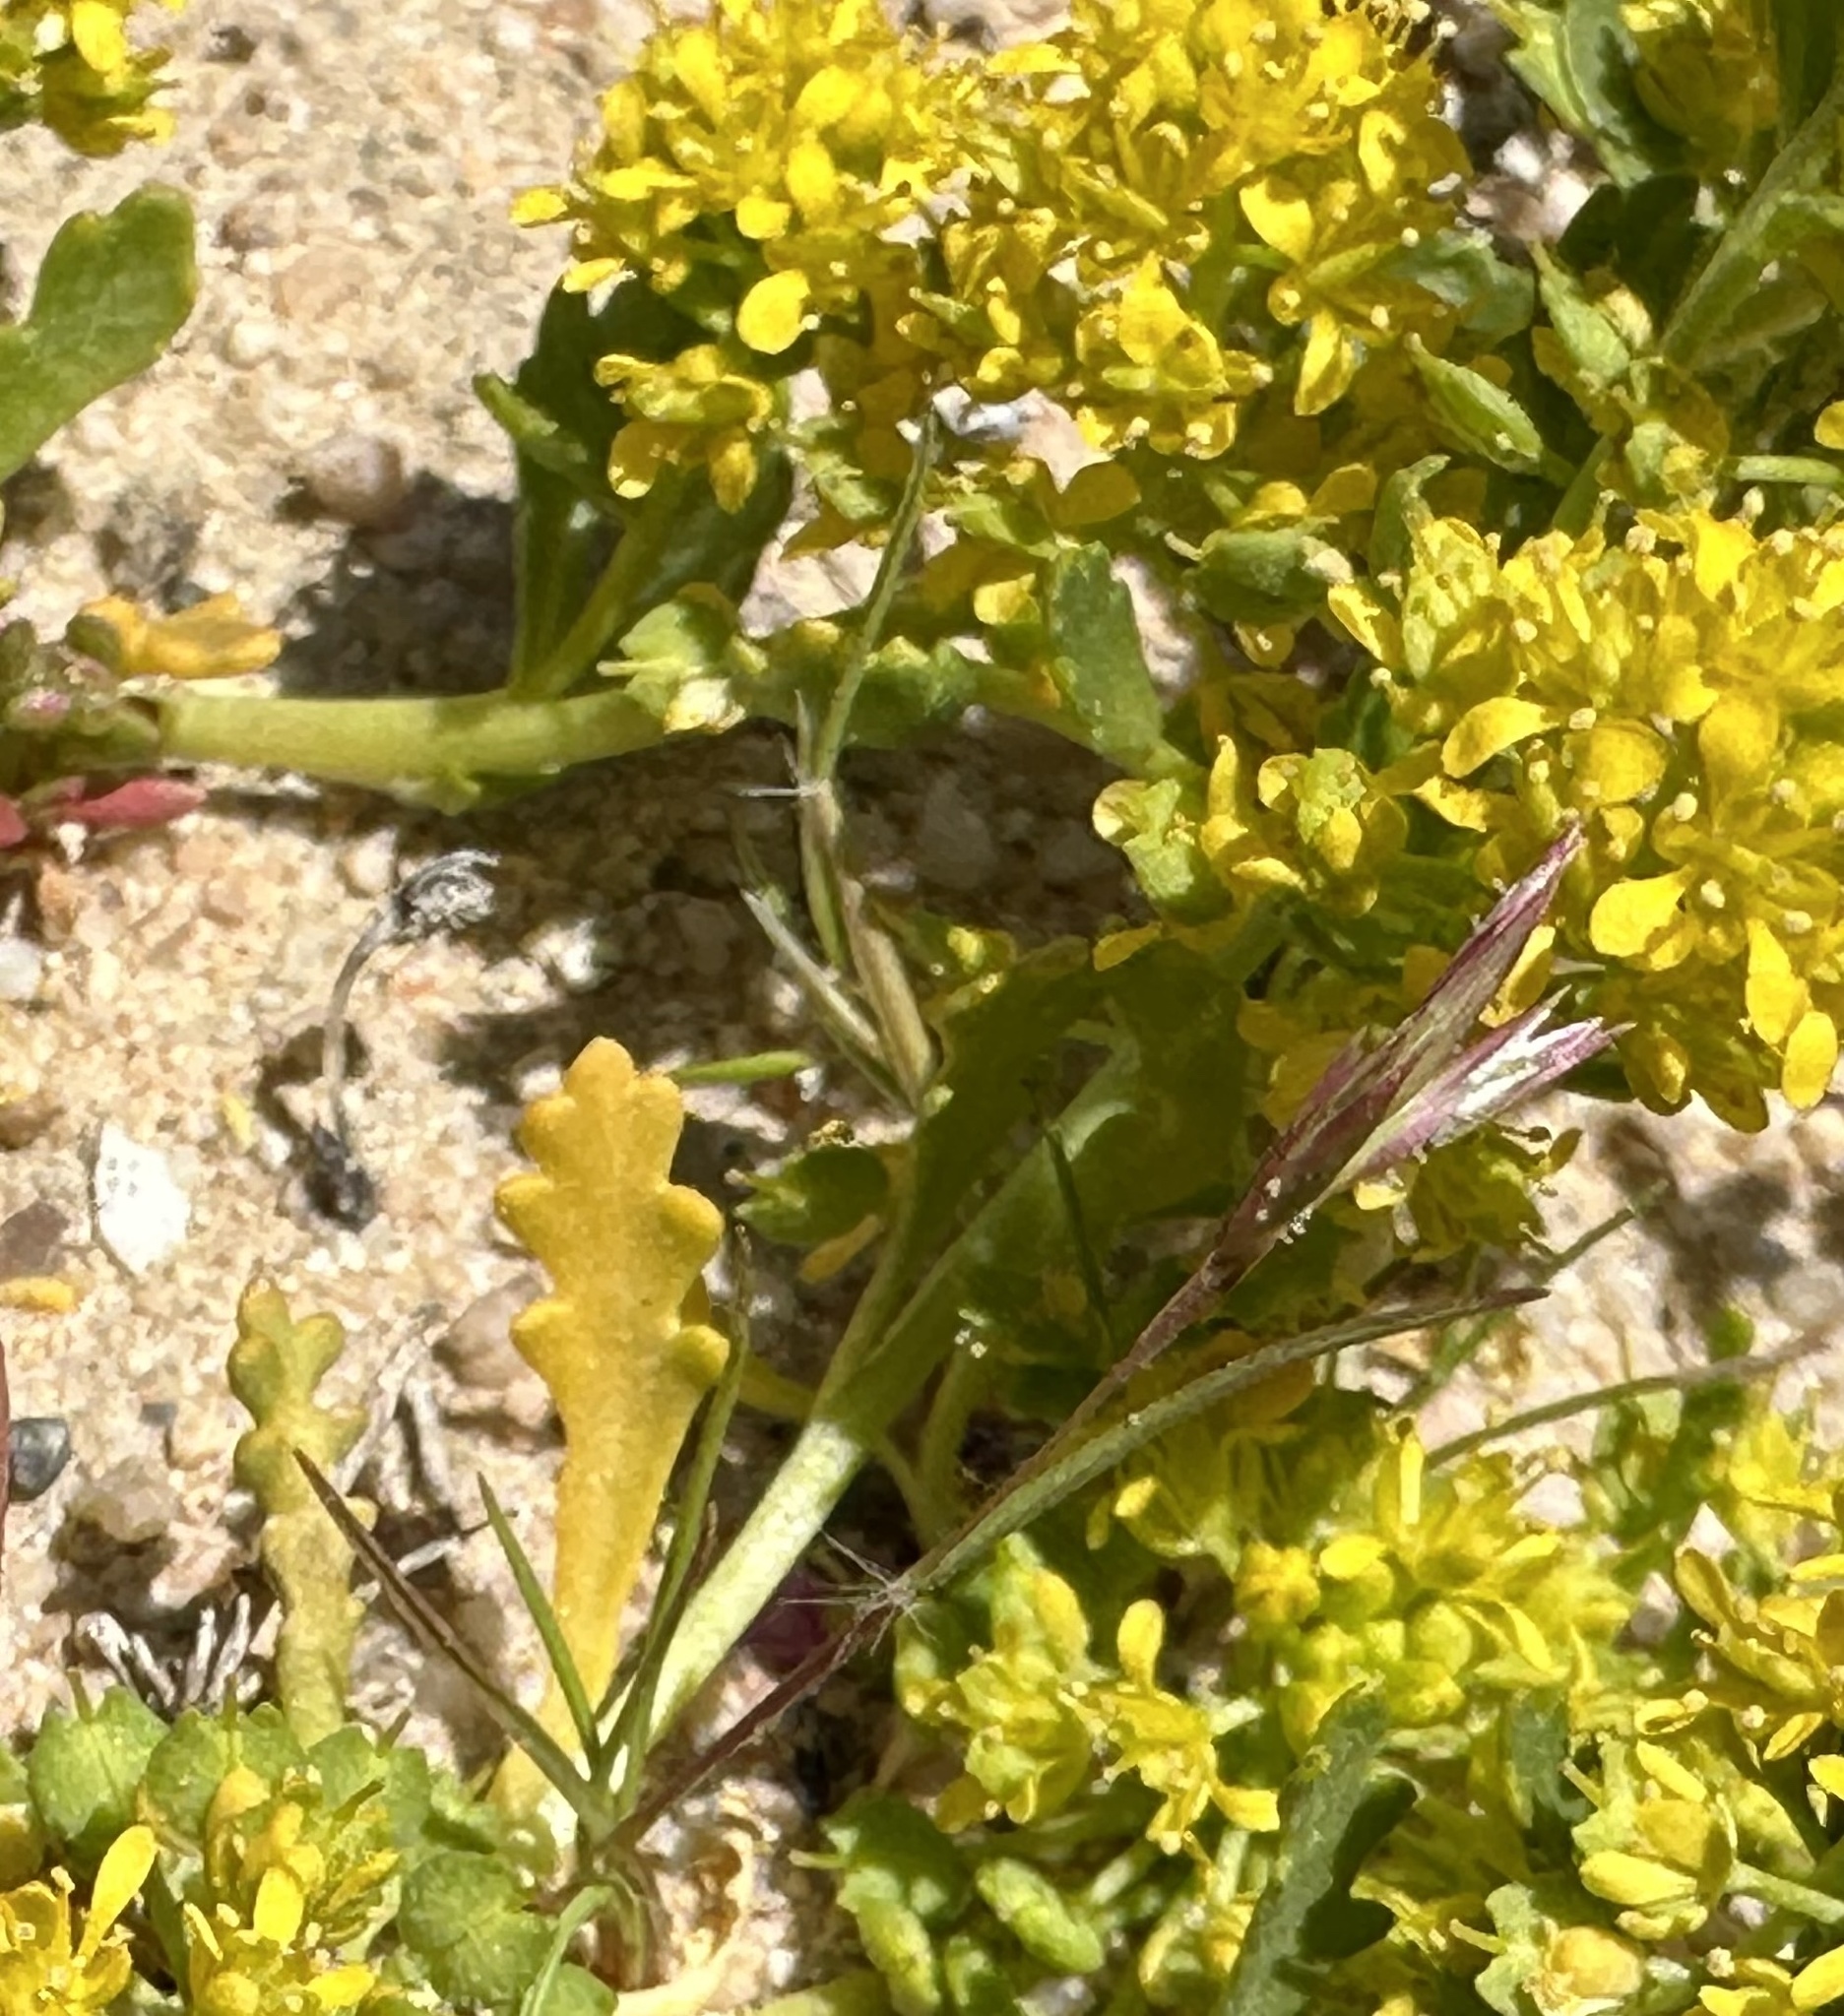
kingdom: Plantae
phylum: Tracheophyta
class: Magnoliopsida
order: Brassicales
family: Brassicaceae
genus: Lepidium
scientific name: Lepidium flavum
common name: Yellow pepperwort
